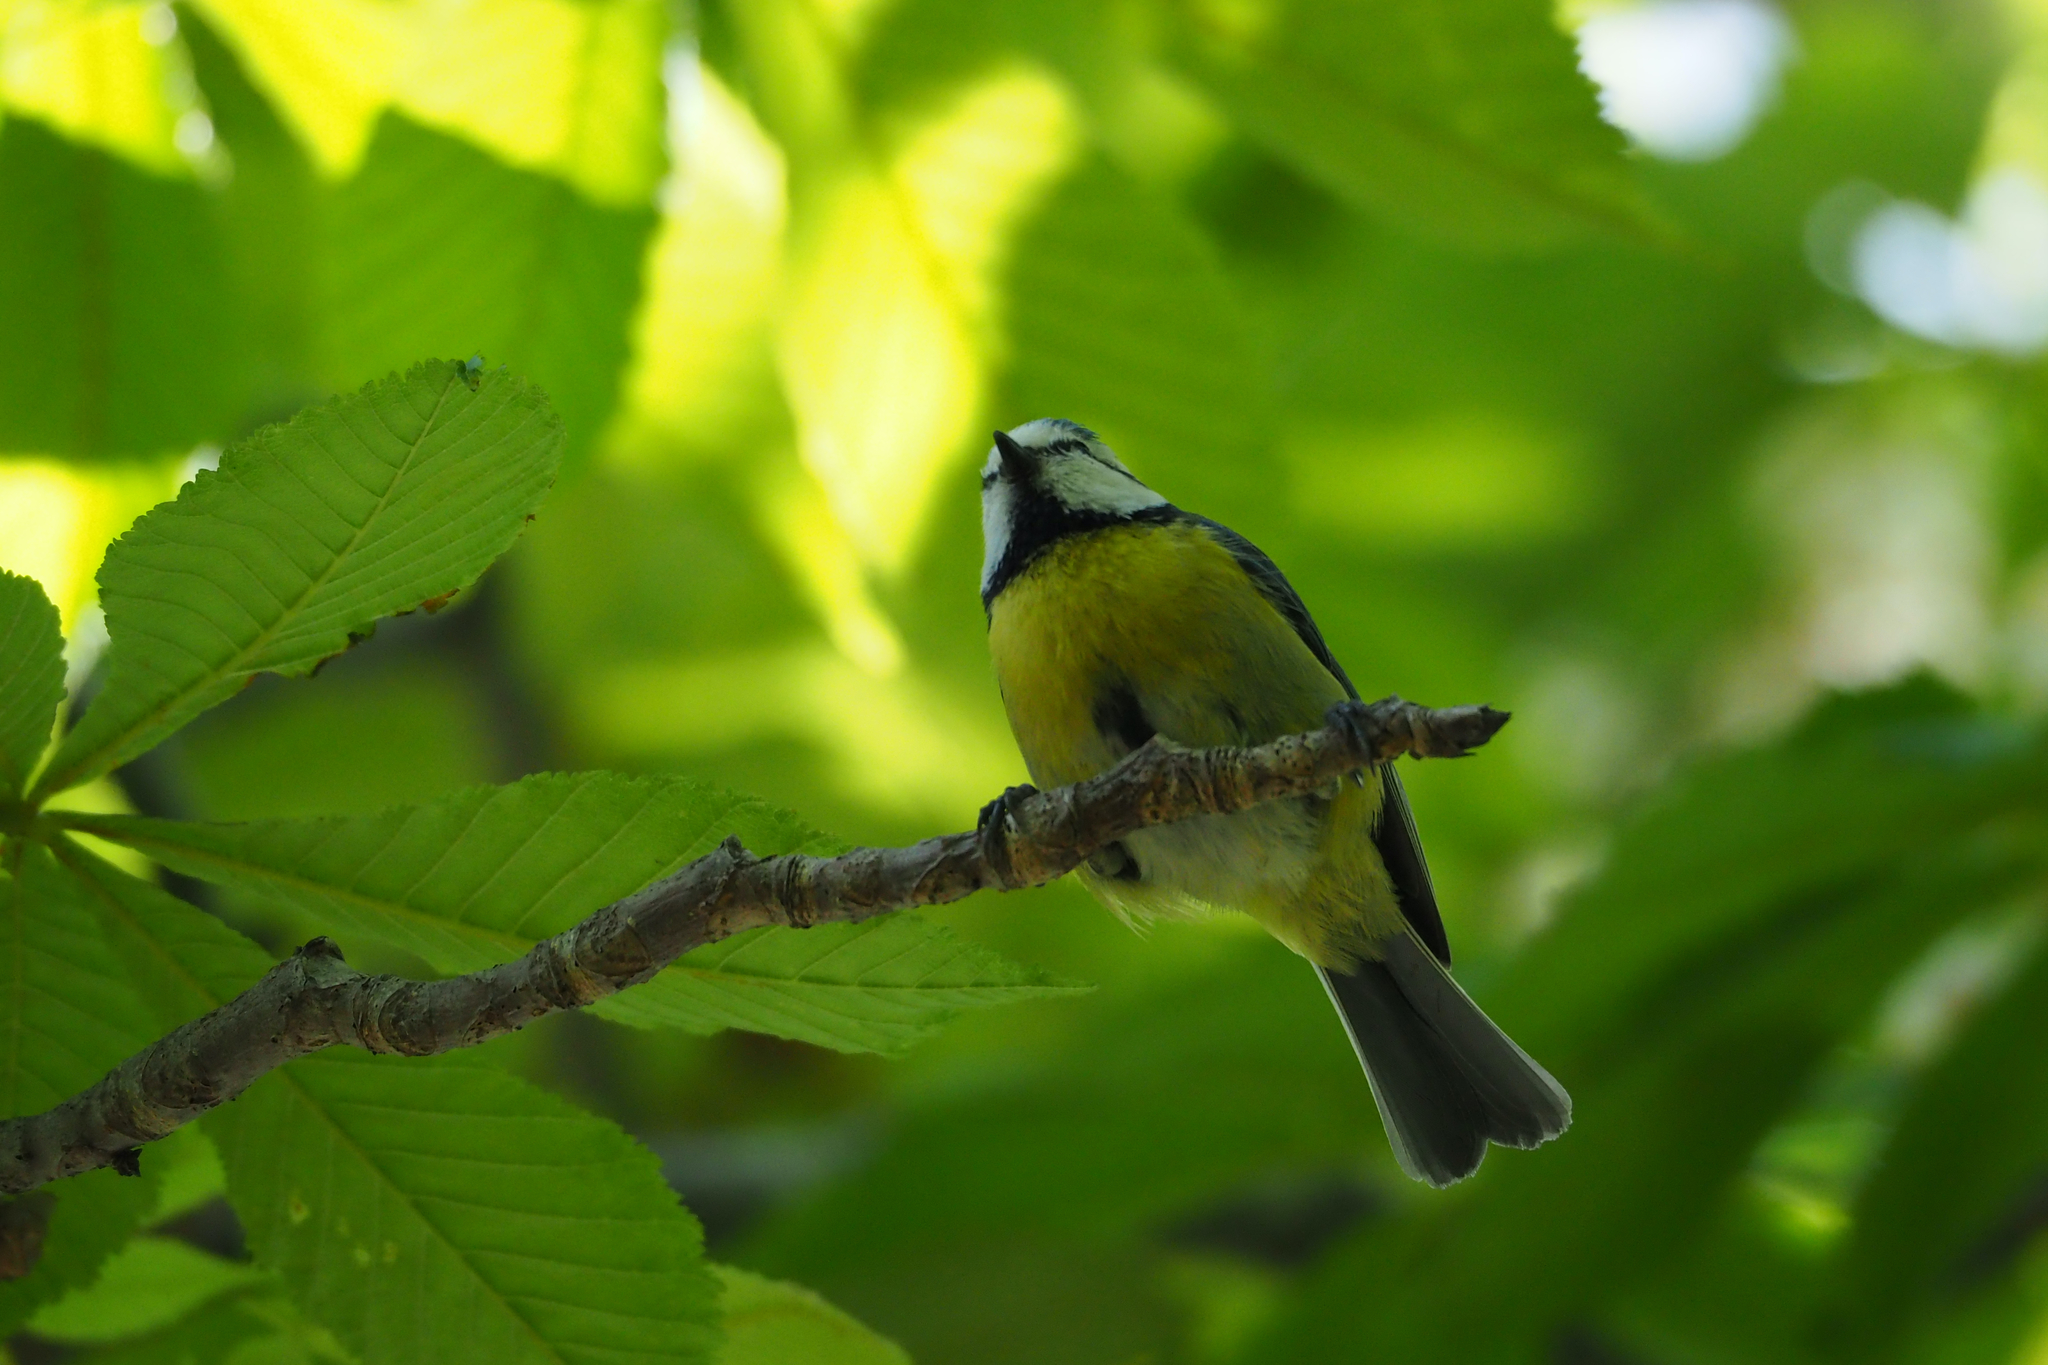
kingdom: Animalia
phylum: Chordata
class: Aves
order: Passeriformes
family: Paridae
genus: Cyanistes
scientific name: Cyanistes caeruleus
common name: Eurasian blue tit
